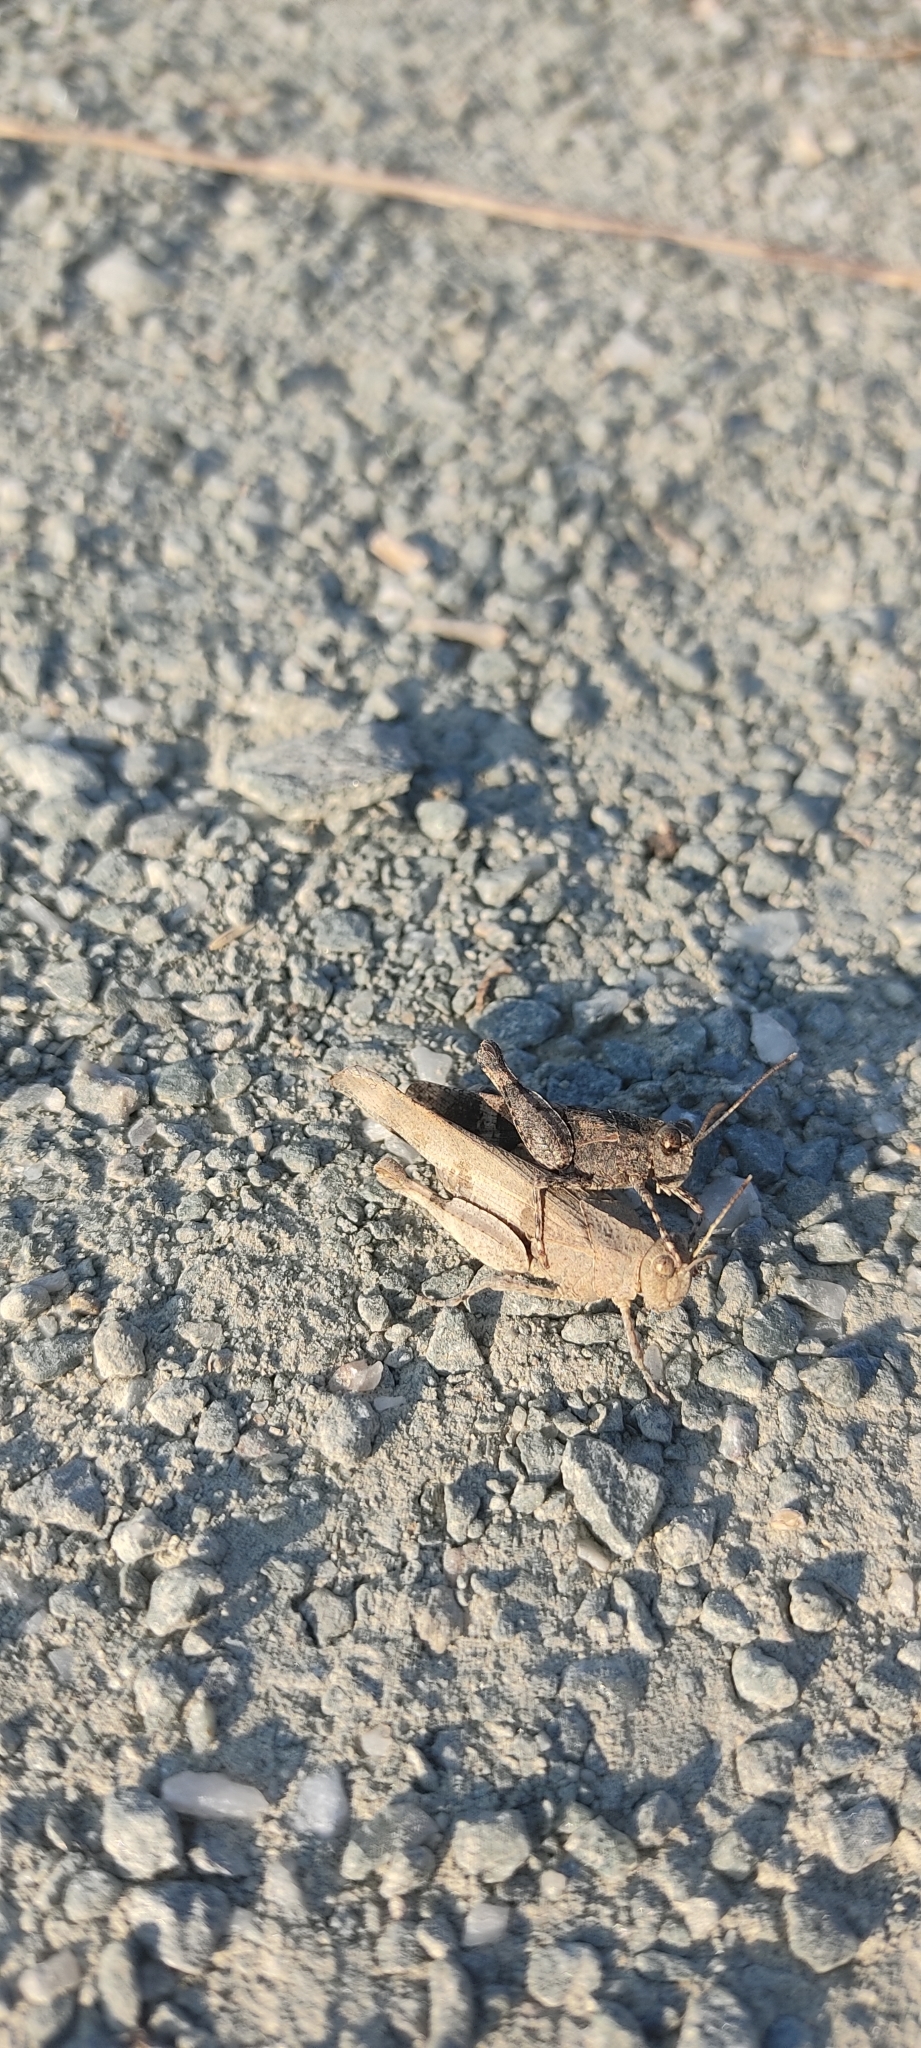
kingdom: Animalia
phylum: Arthropoda
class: Insecta
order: Orthoptera
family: Acrididae
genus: Oedipoda
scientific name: Oedipoda caerulescens
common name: Blue-winged grasshopper
